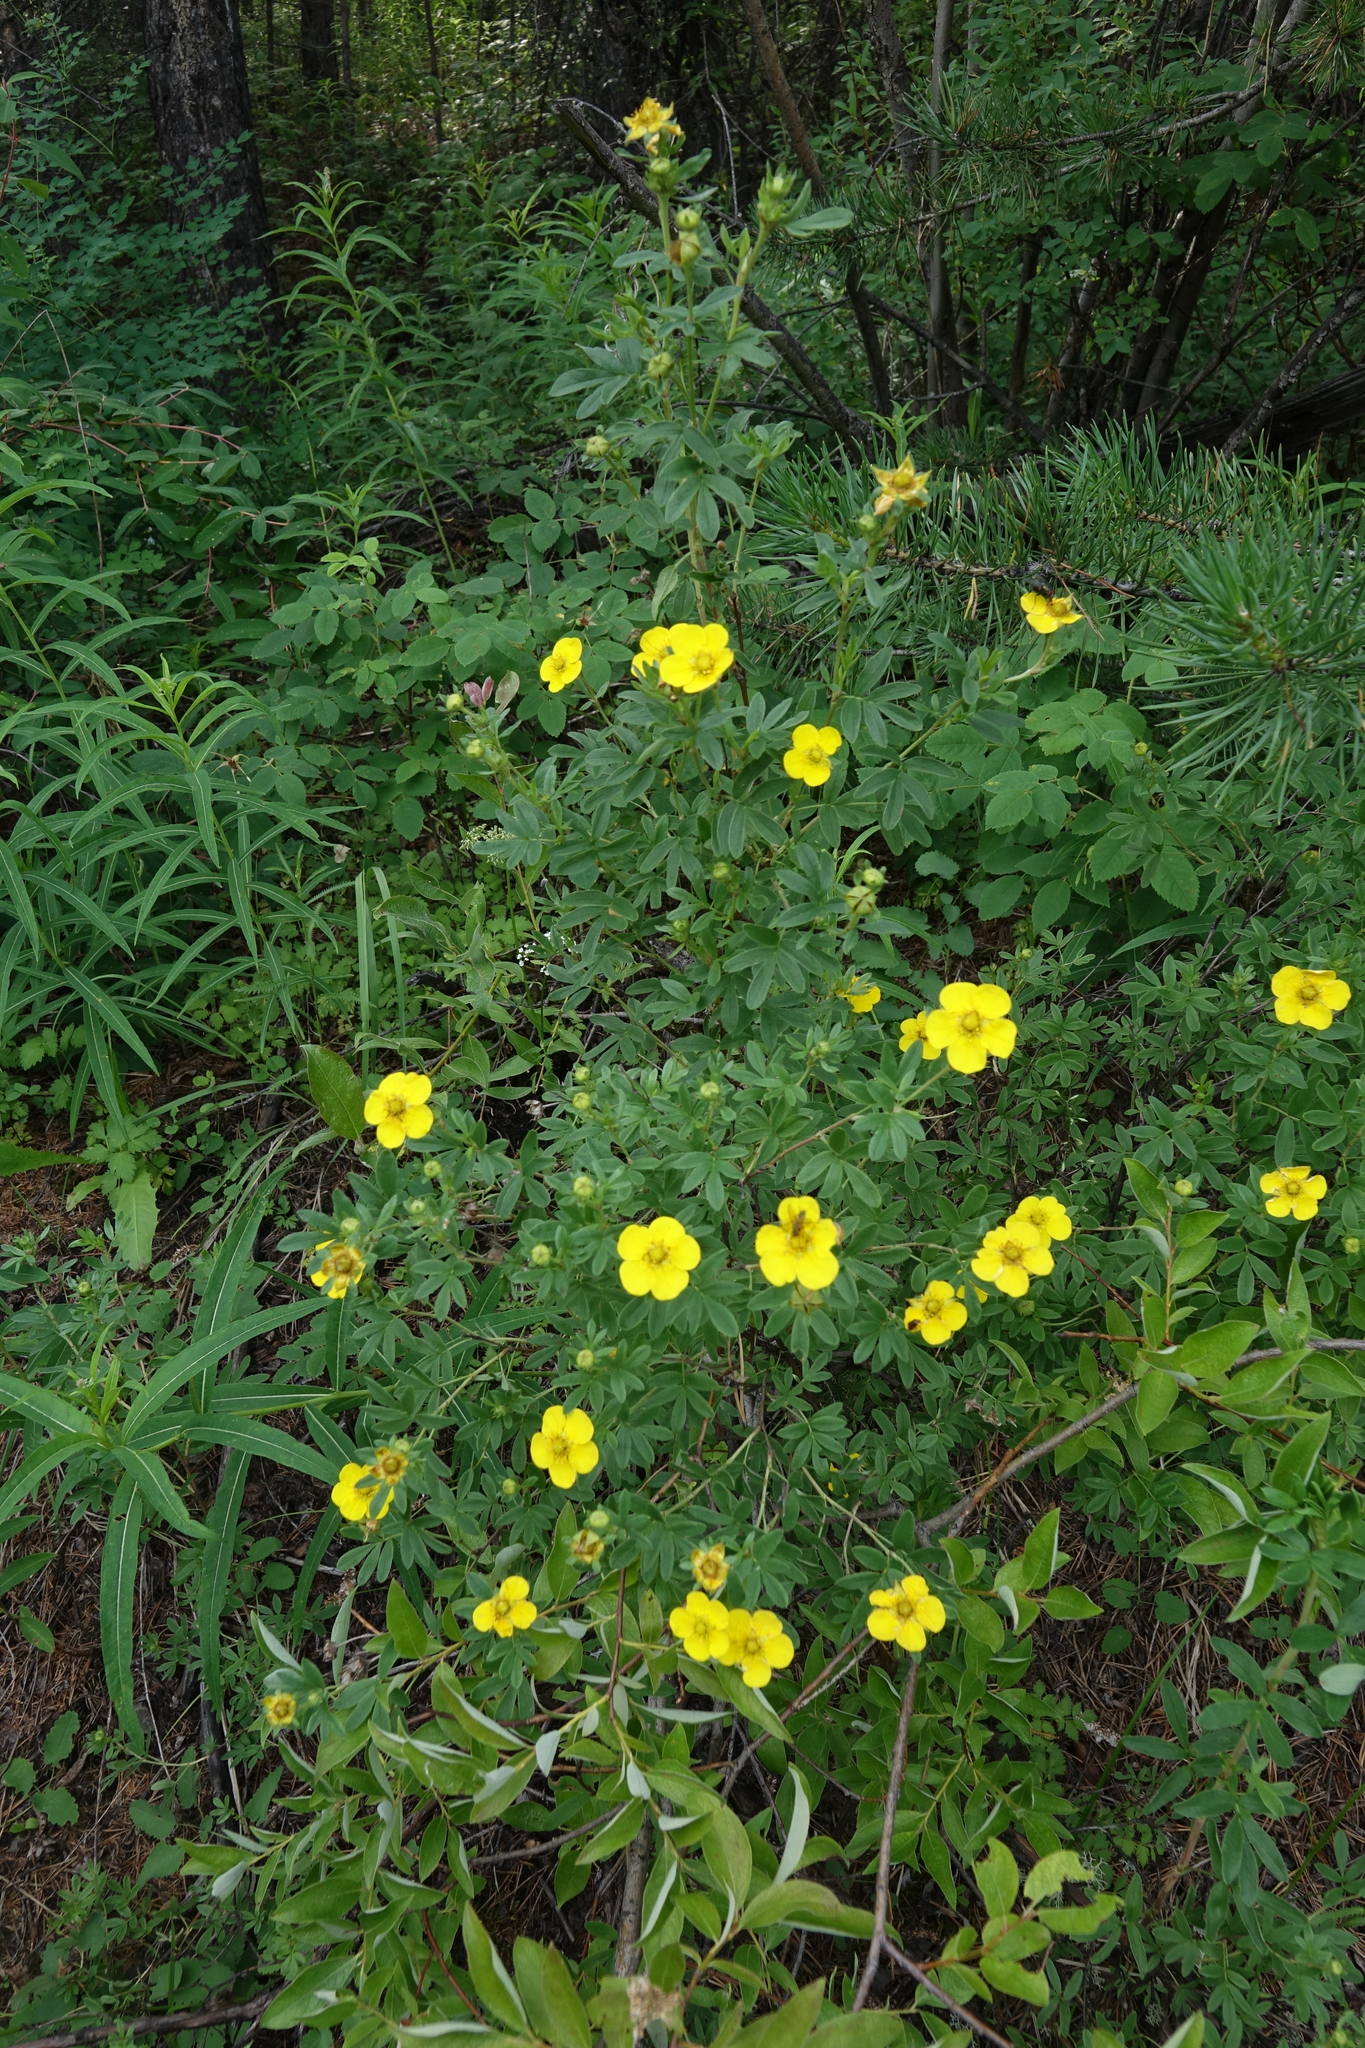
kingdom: Plantae
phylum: Tracheophyta
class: Magnoliopsida
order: Rosales
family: Rosaceae
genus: Dasiphora
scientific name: Dasiphora fruticosa
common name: Shrubby cinquefoil
